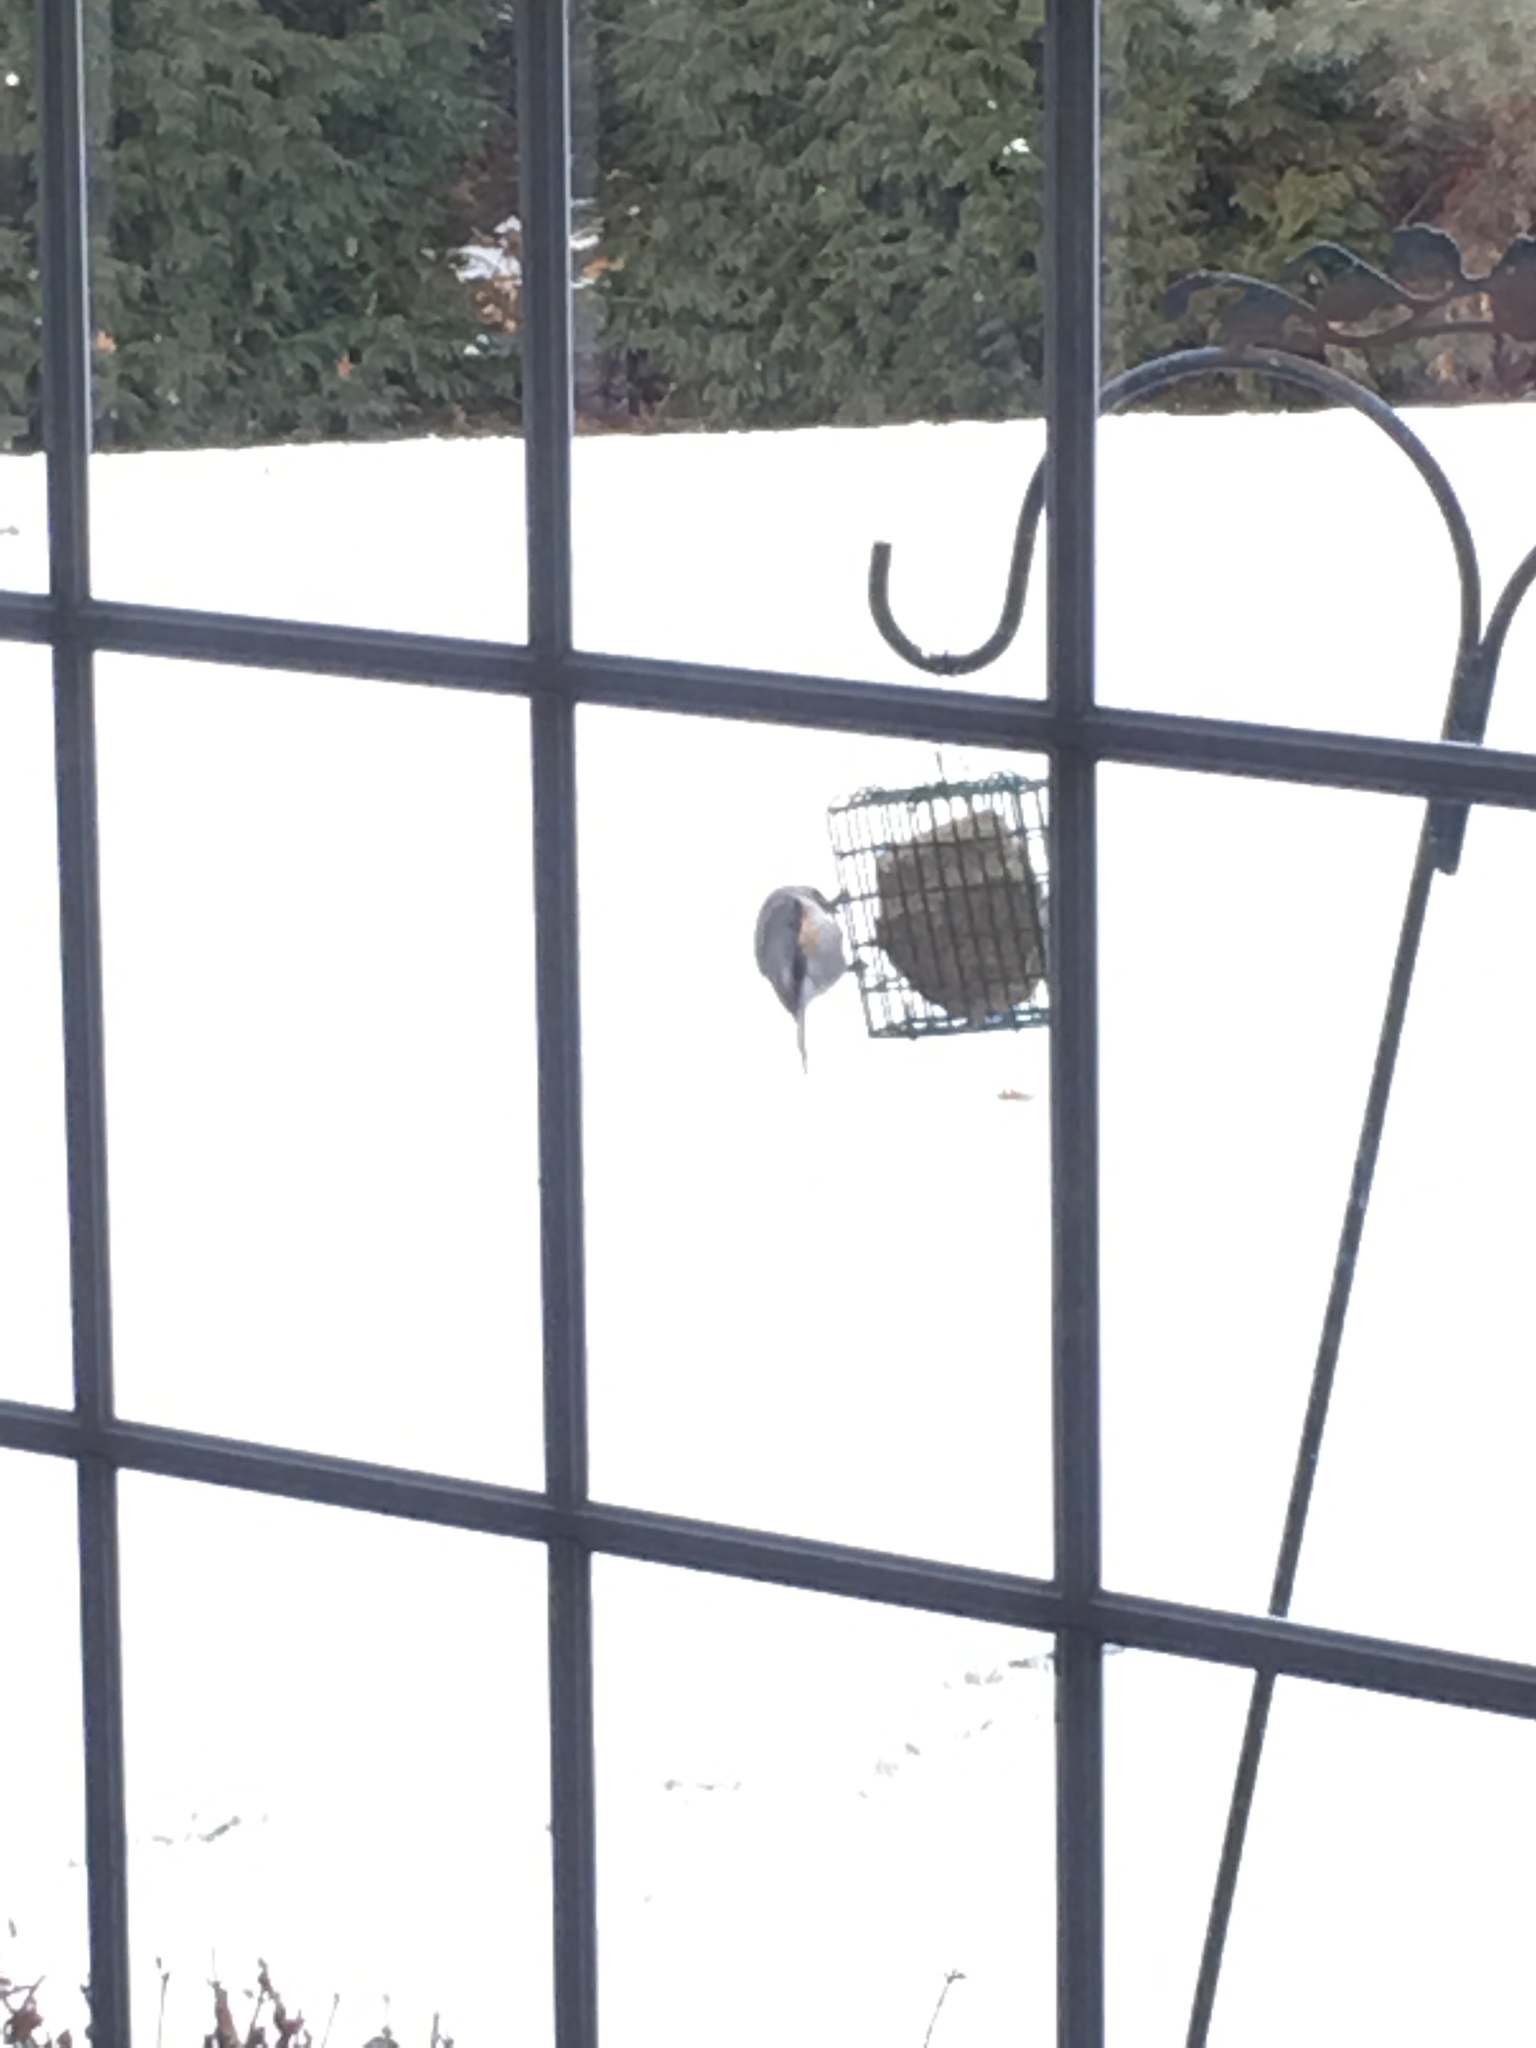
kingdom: Animalia
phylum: Chordata
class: Aves
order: Passeriformes
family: Paridae
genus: Baeolophus
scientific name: Baeolophus bicolor
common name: Tufted titmouse
